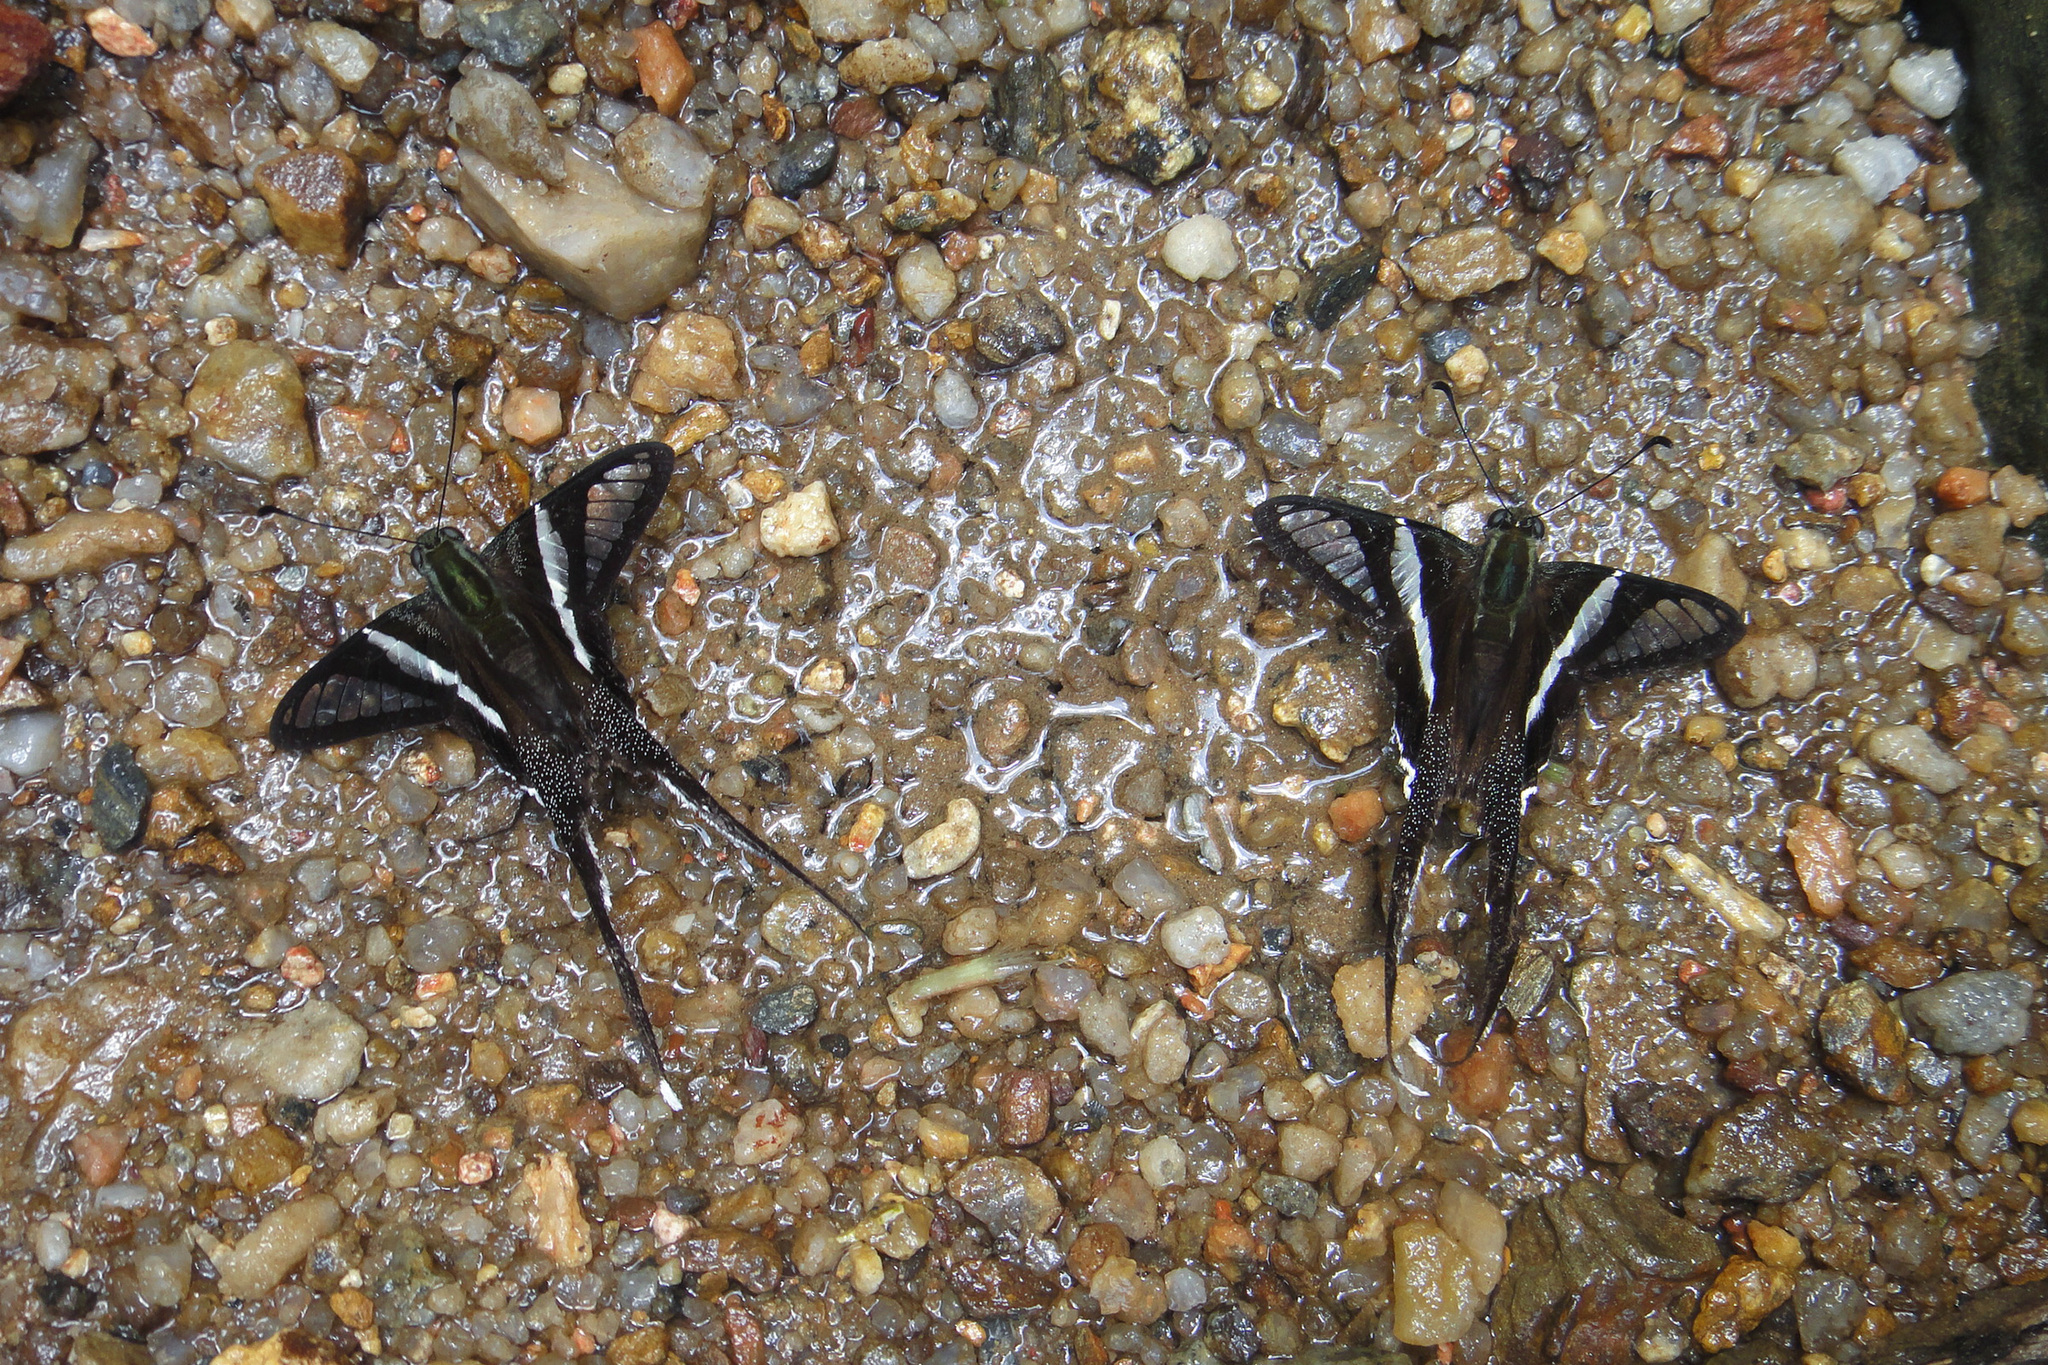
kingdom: Animalia
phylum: Arthropoda
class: Insecta
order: Lepidoptera
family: Papilionidae
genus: Lamproptera
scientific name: Lamproptera curius
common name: White dragontail
